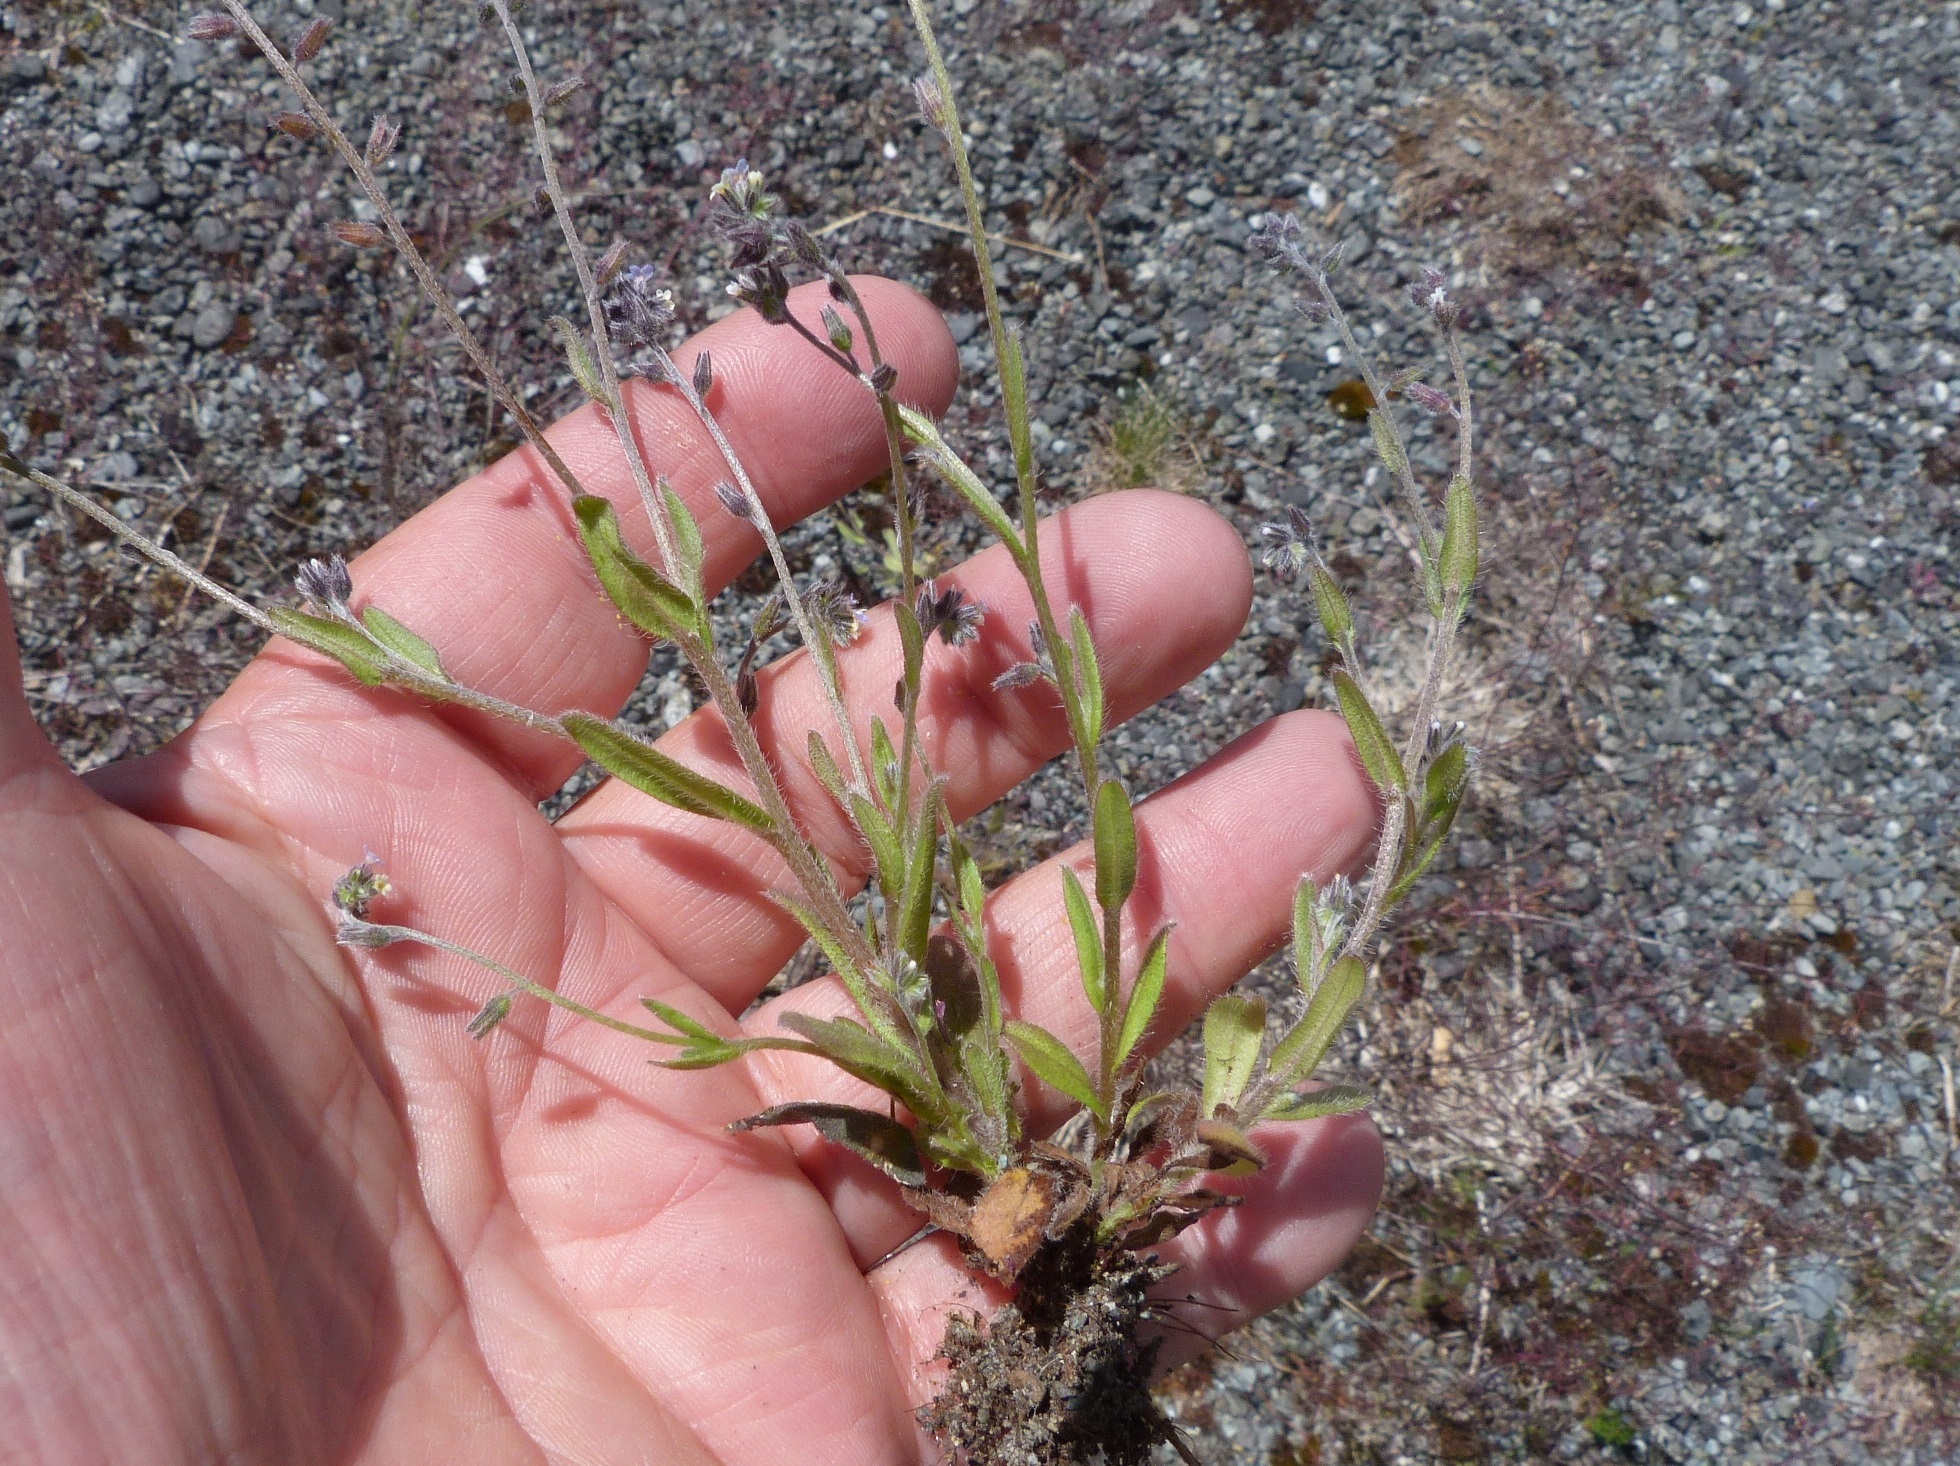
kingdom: Plantae
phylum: Tracheophyta
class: Magnoliopsida
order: Boraginales
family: Boraginaceae
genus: Myosotis
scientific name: Myosotis discolor
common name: Changing forget-me-not
